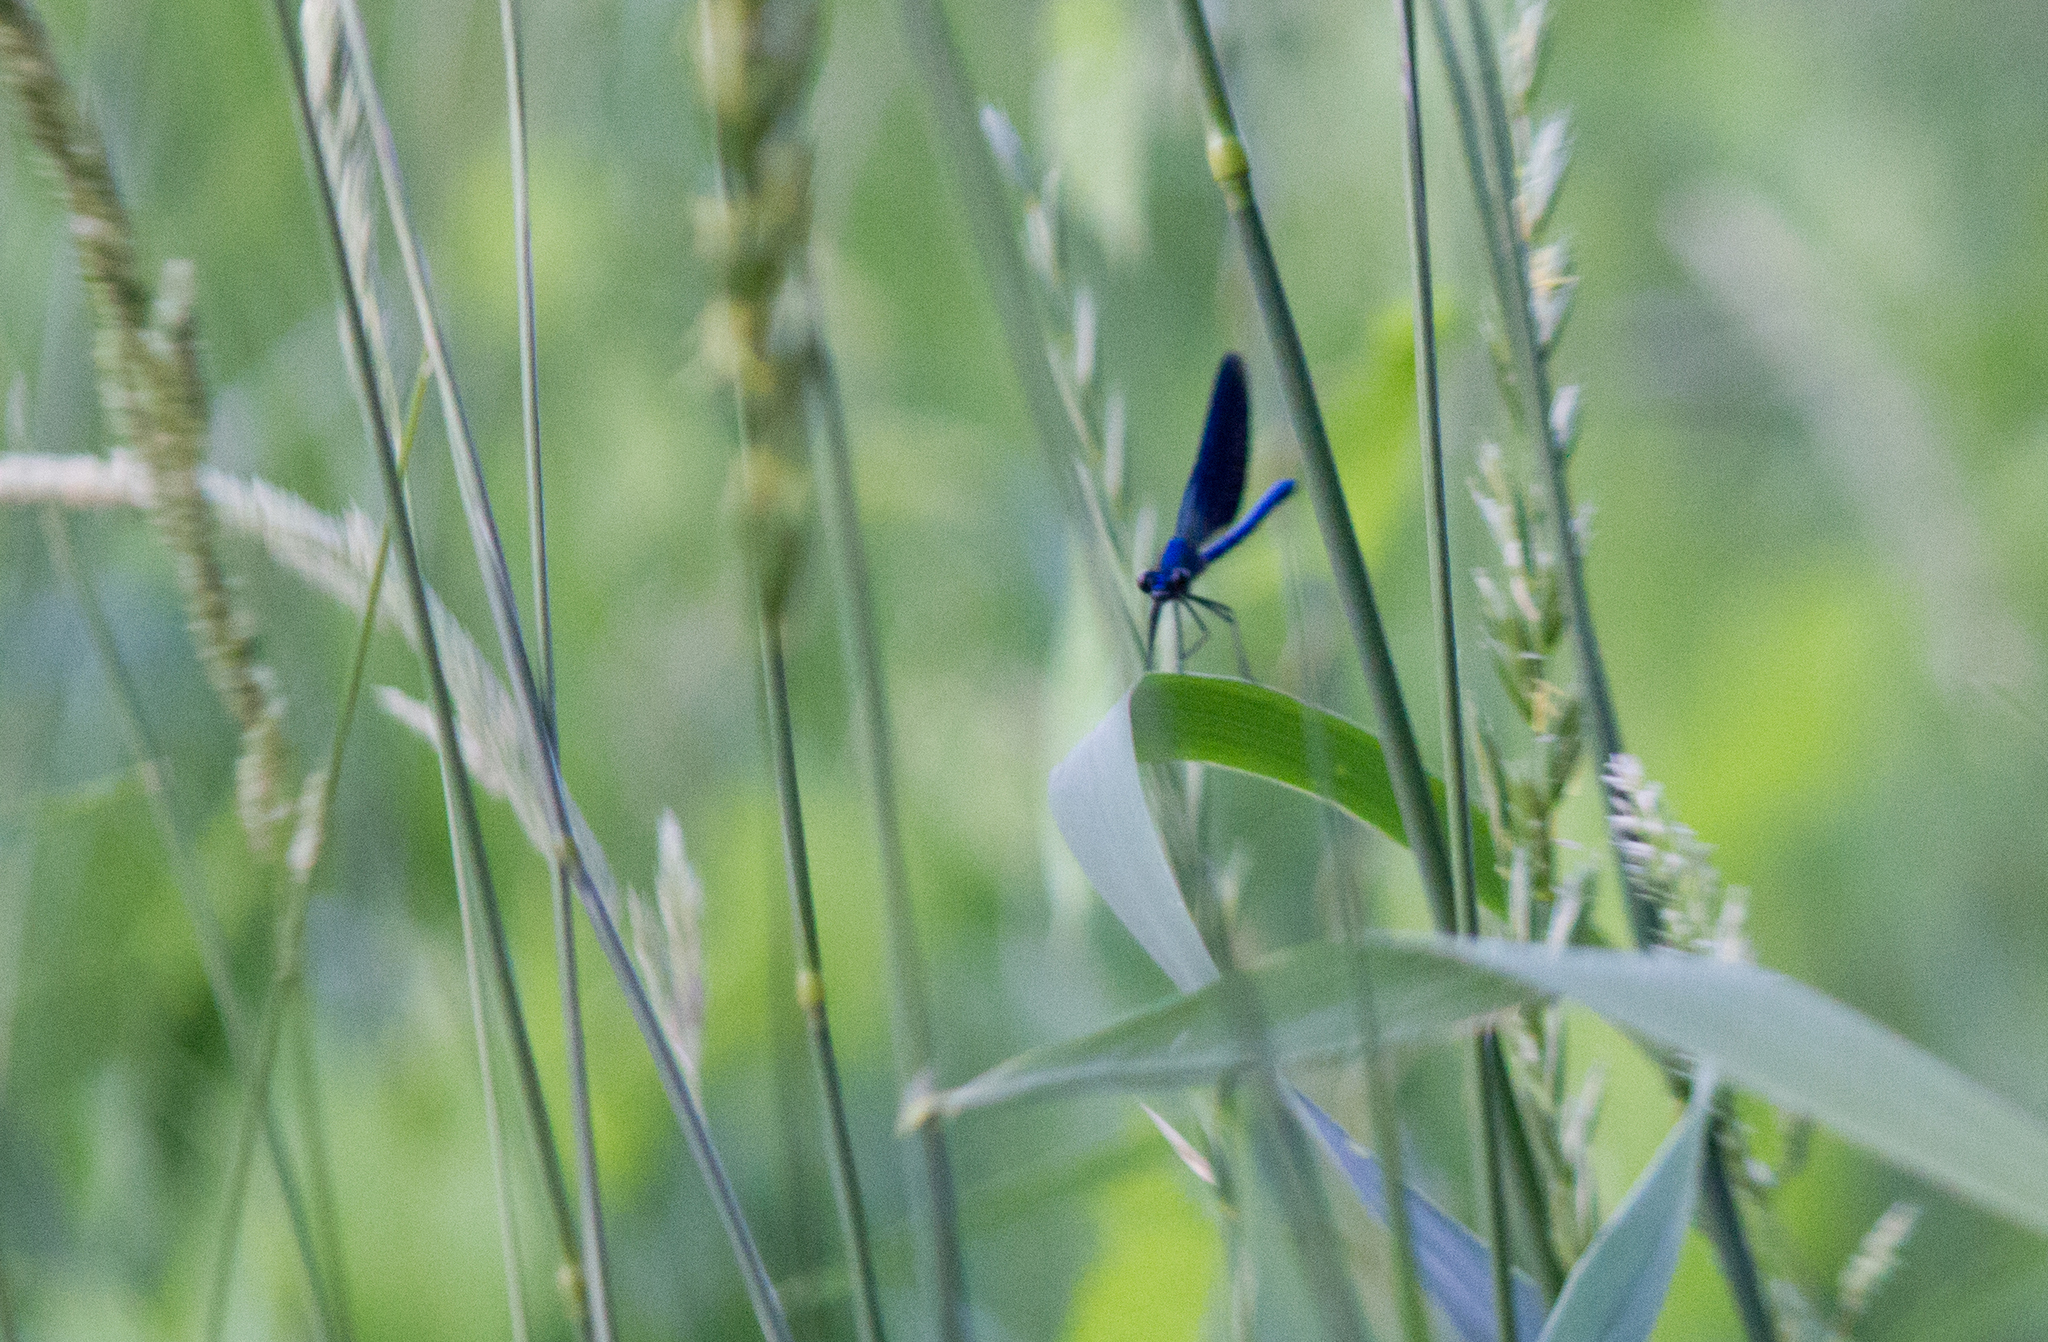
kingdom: Animalia
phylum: Arthropoda
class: Insecta
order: Odonata
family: Calopterygidae
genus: Calopteryx
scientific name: Calopteryx splendens
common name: Banded demoiselle
